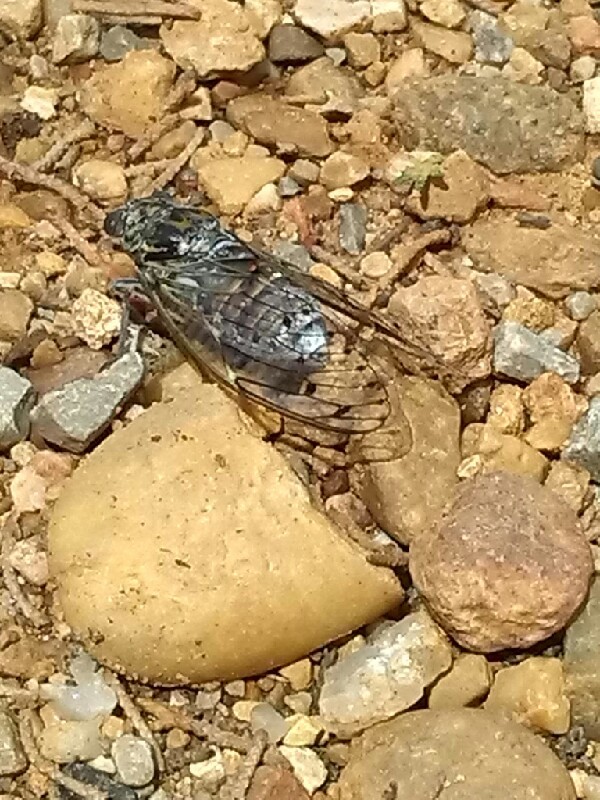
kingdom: Animalia
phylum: Arthropoda
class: Insecta
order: Hemiptera
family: Cicadidae
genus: Cicada
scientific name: Cicada orni
